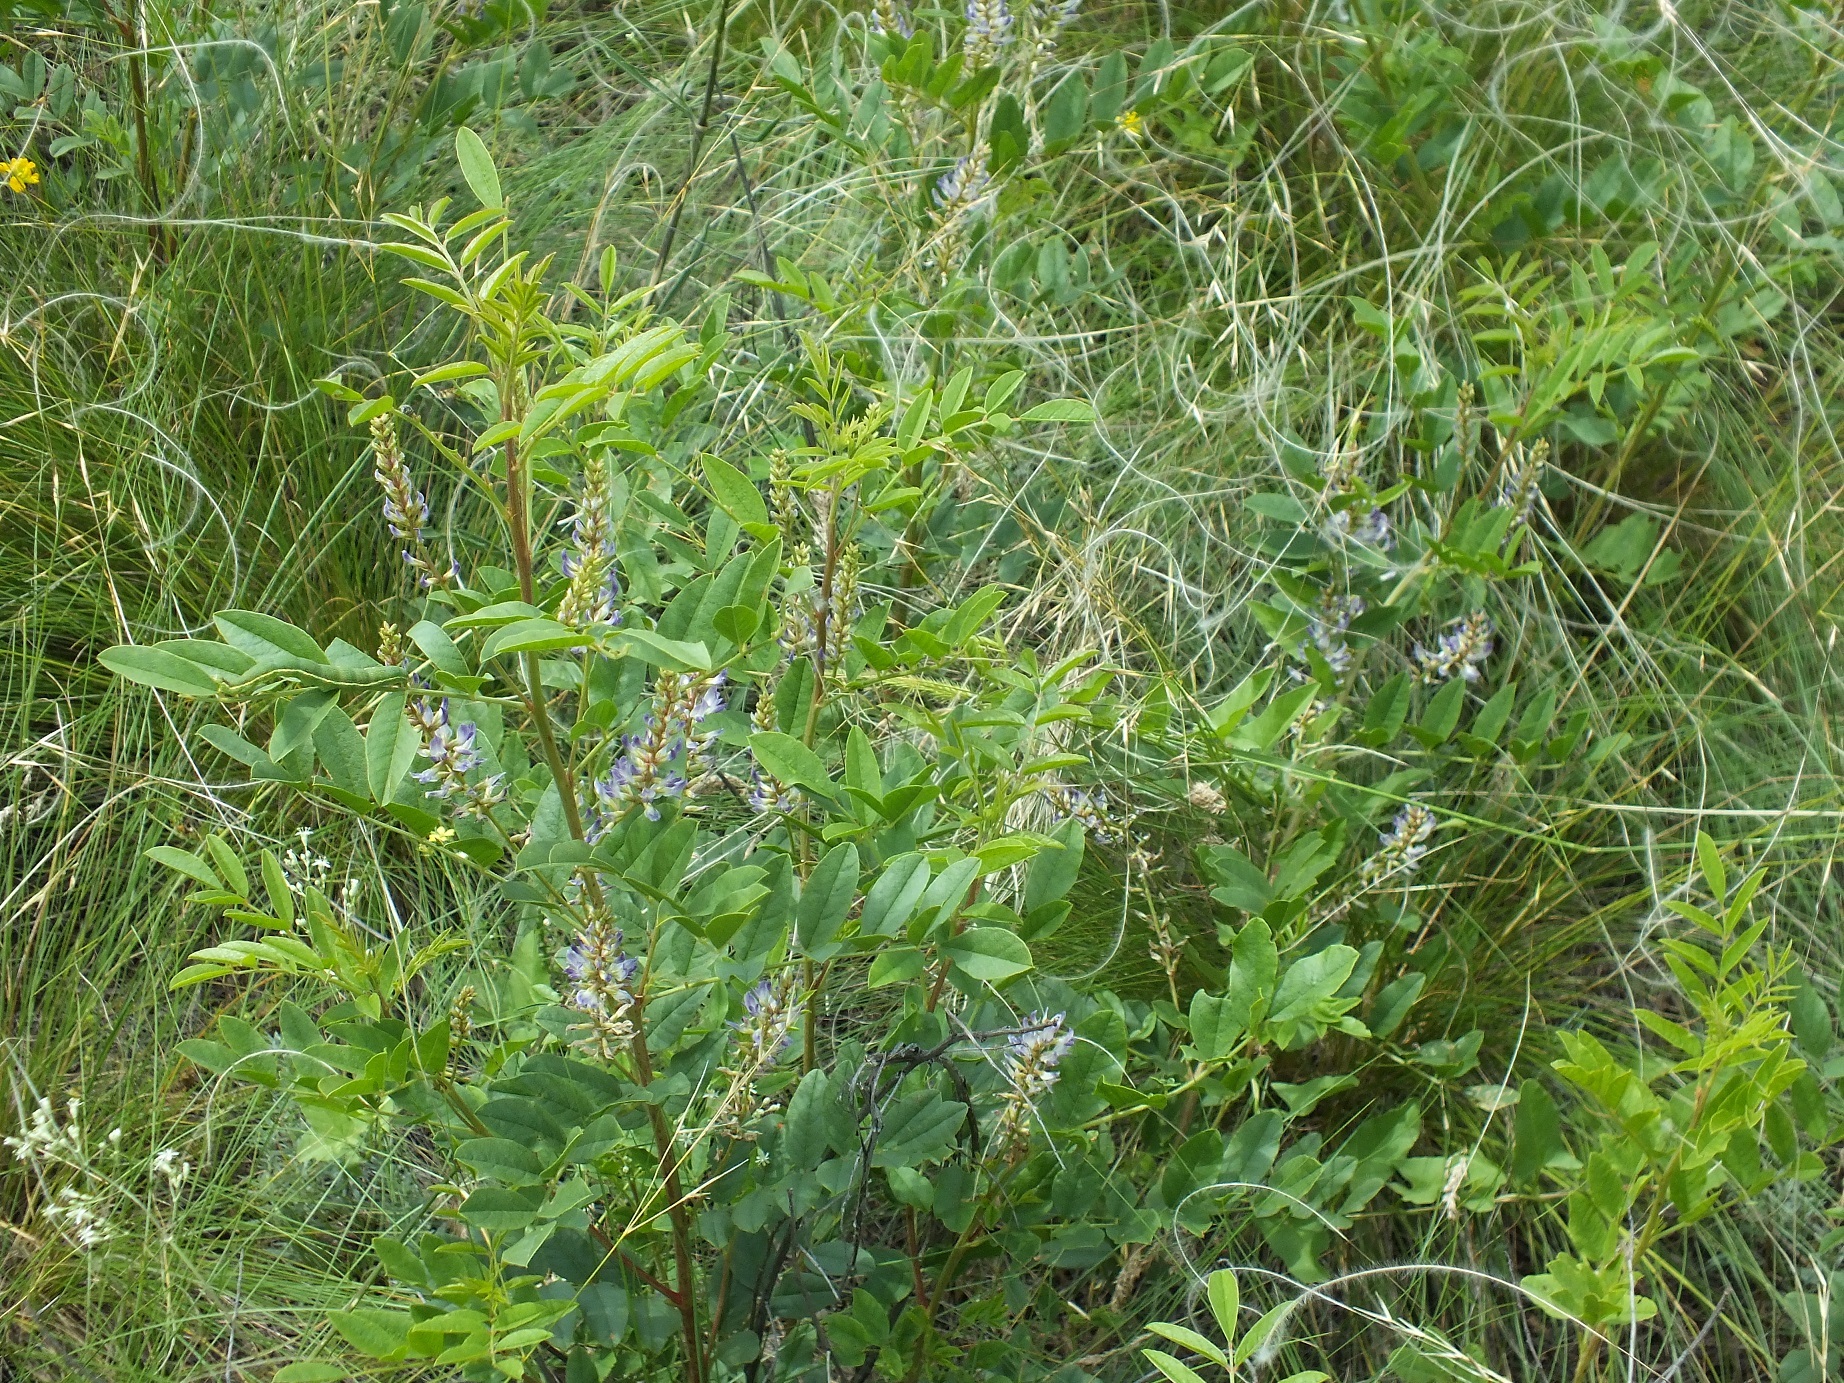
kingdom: Plantae
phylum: Tracheophyta
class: Magnoliopsida
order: Fabales
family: Fabaceae
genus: Glycyrrhiza
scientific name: Glycyrrhiza glabra
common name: Liquorice
